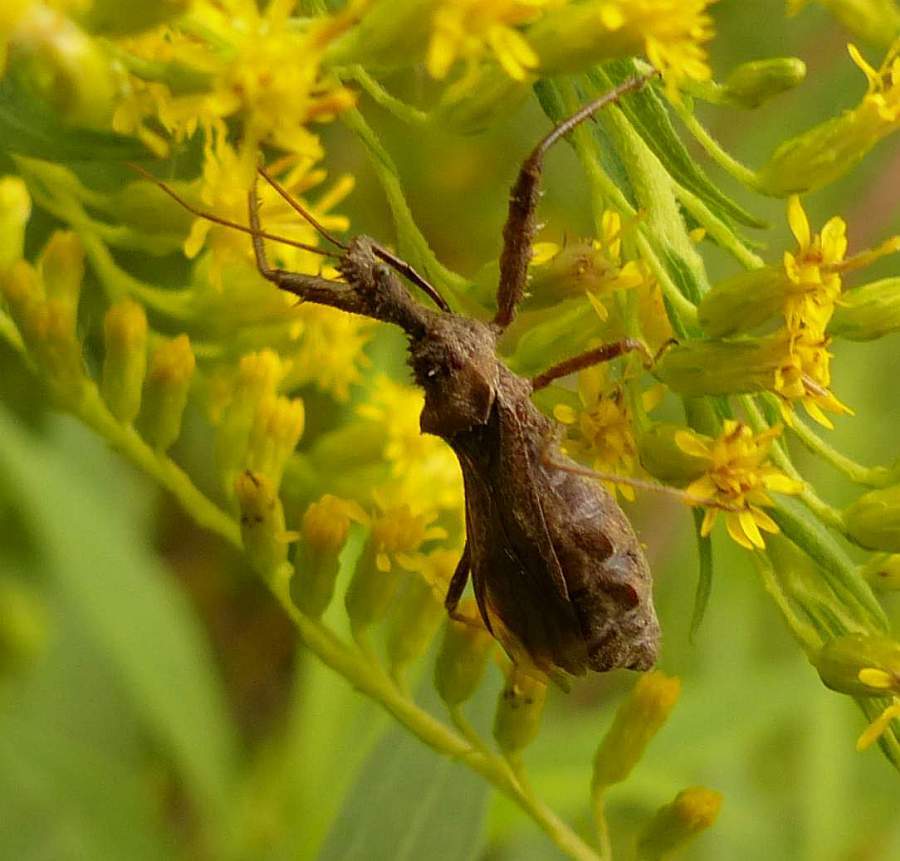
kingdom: Animalia
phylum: Arthropoda
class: Insecta
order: Hemiptera
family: Reduviidae
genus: Sinea
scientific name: Sinea diadema
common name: Spined assassin bug
